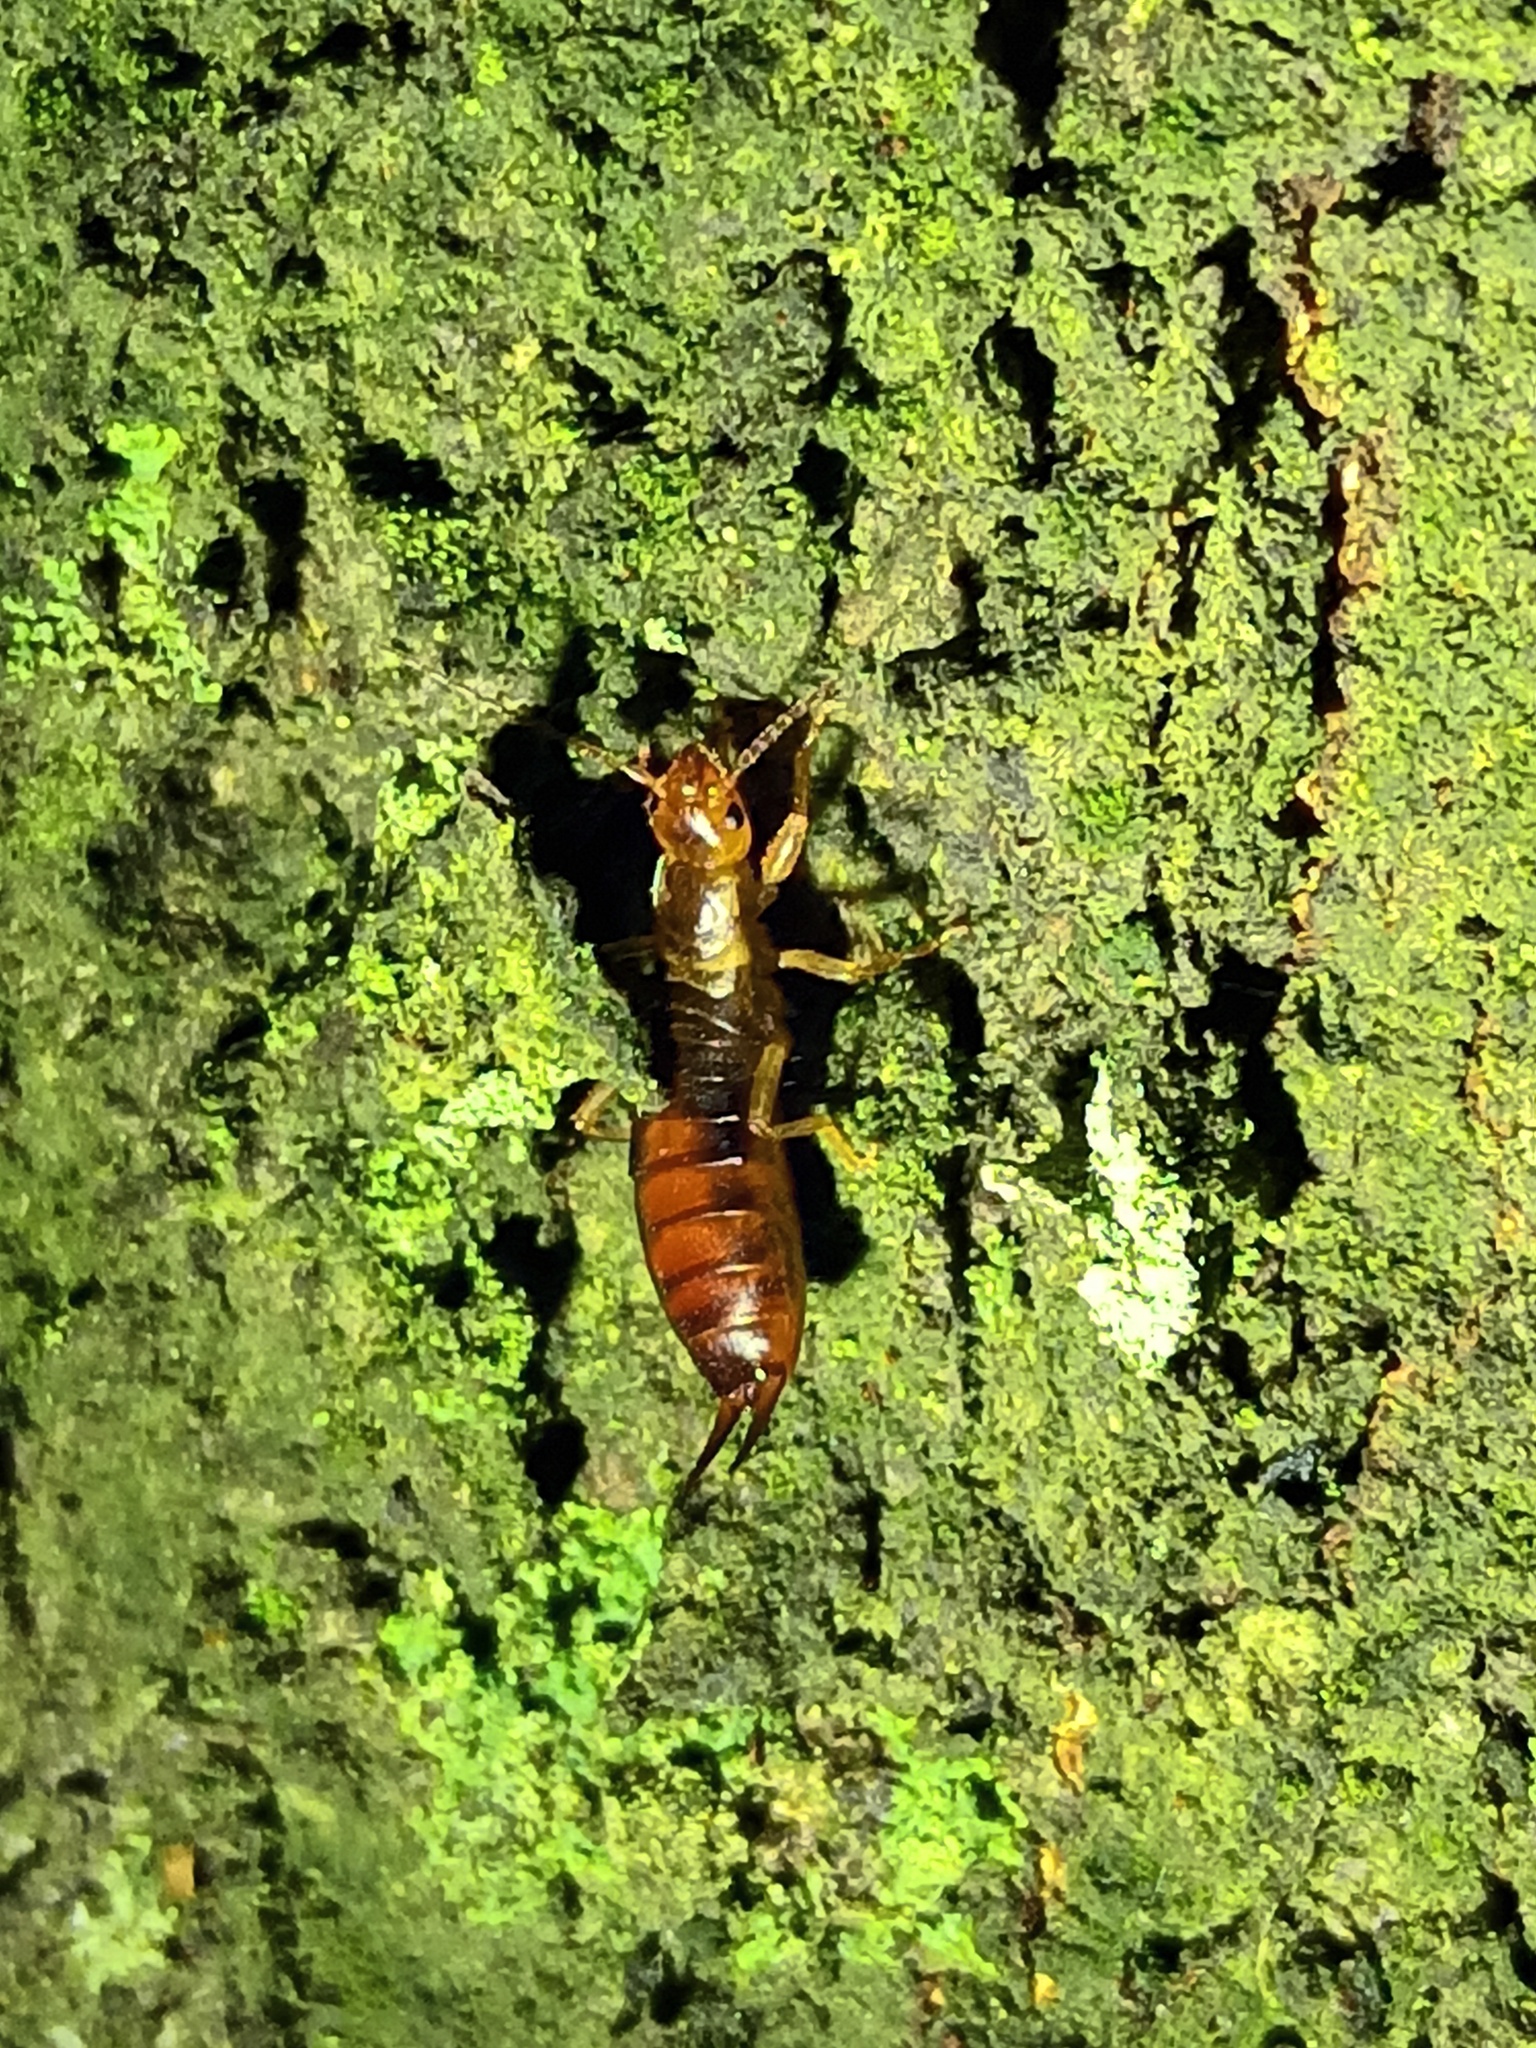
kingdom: Animalia
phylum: Arthropoda
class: Insecta
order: Dermaptera
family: Forficulidae
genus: Chelidurella
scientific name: Chelidurella acanthopygia
